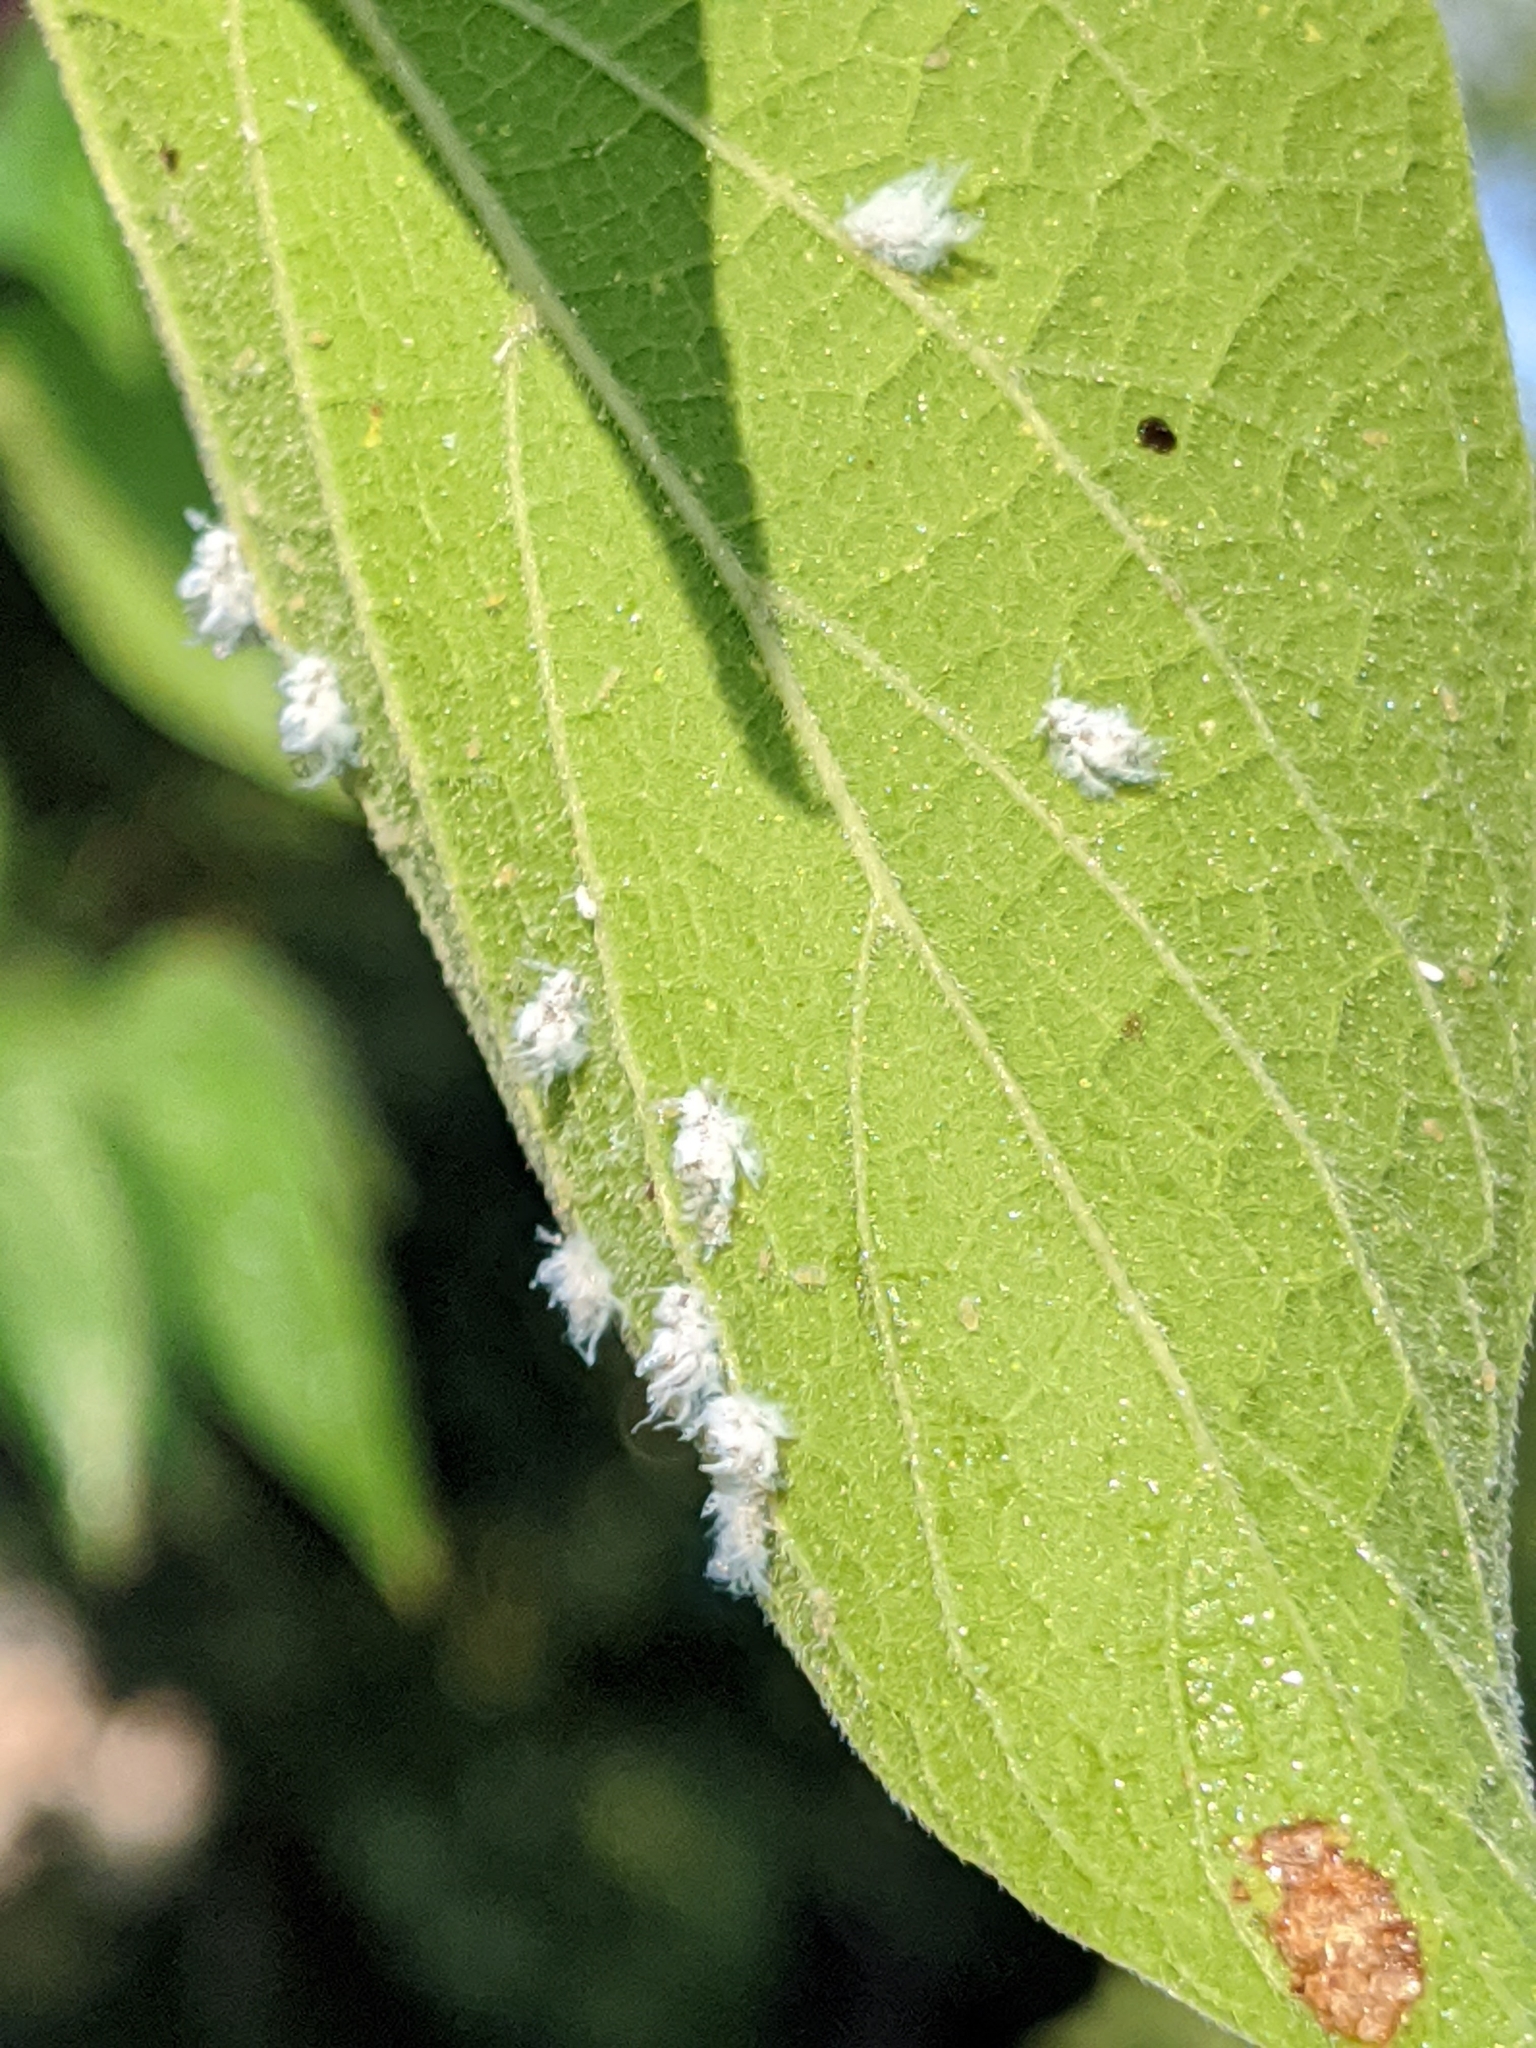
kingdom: Animalia
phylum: Arthropoda
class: Insecta
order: Hemiptera
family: Aphididae
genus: Shivaphis
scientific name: Shivaphis celti
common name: Asian wooly hackberry aphid
